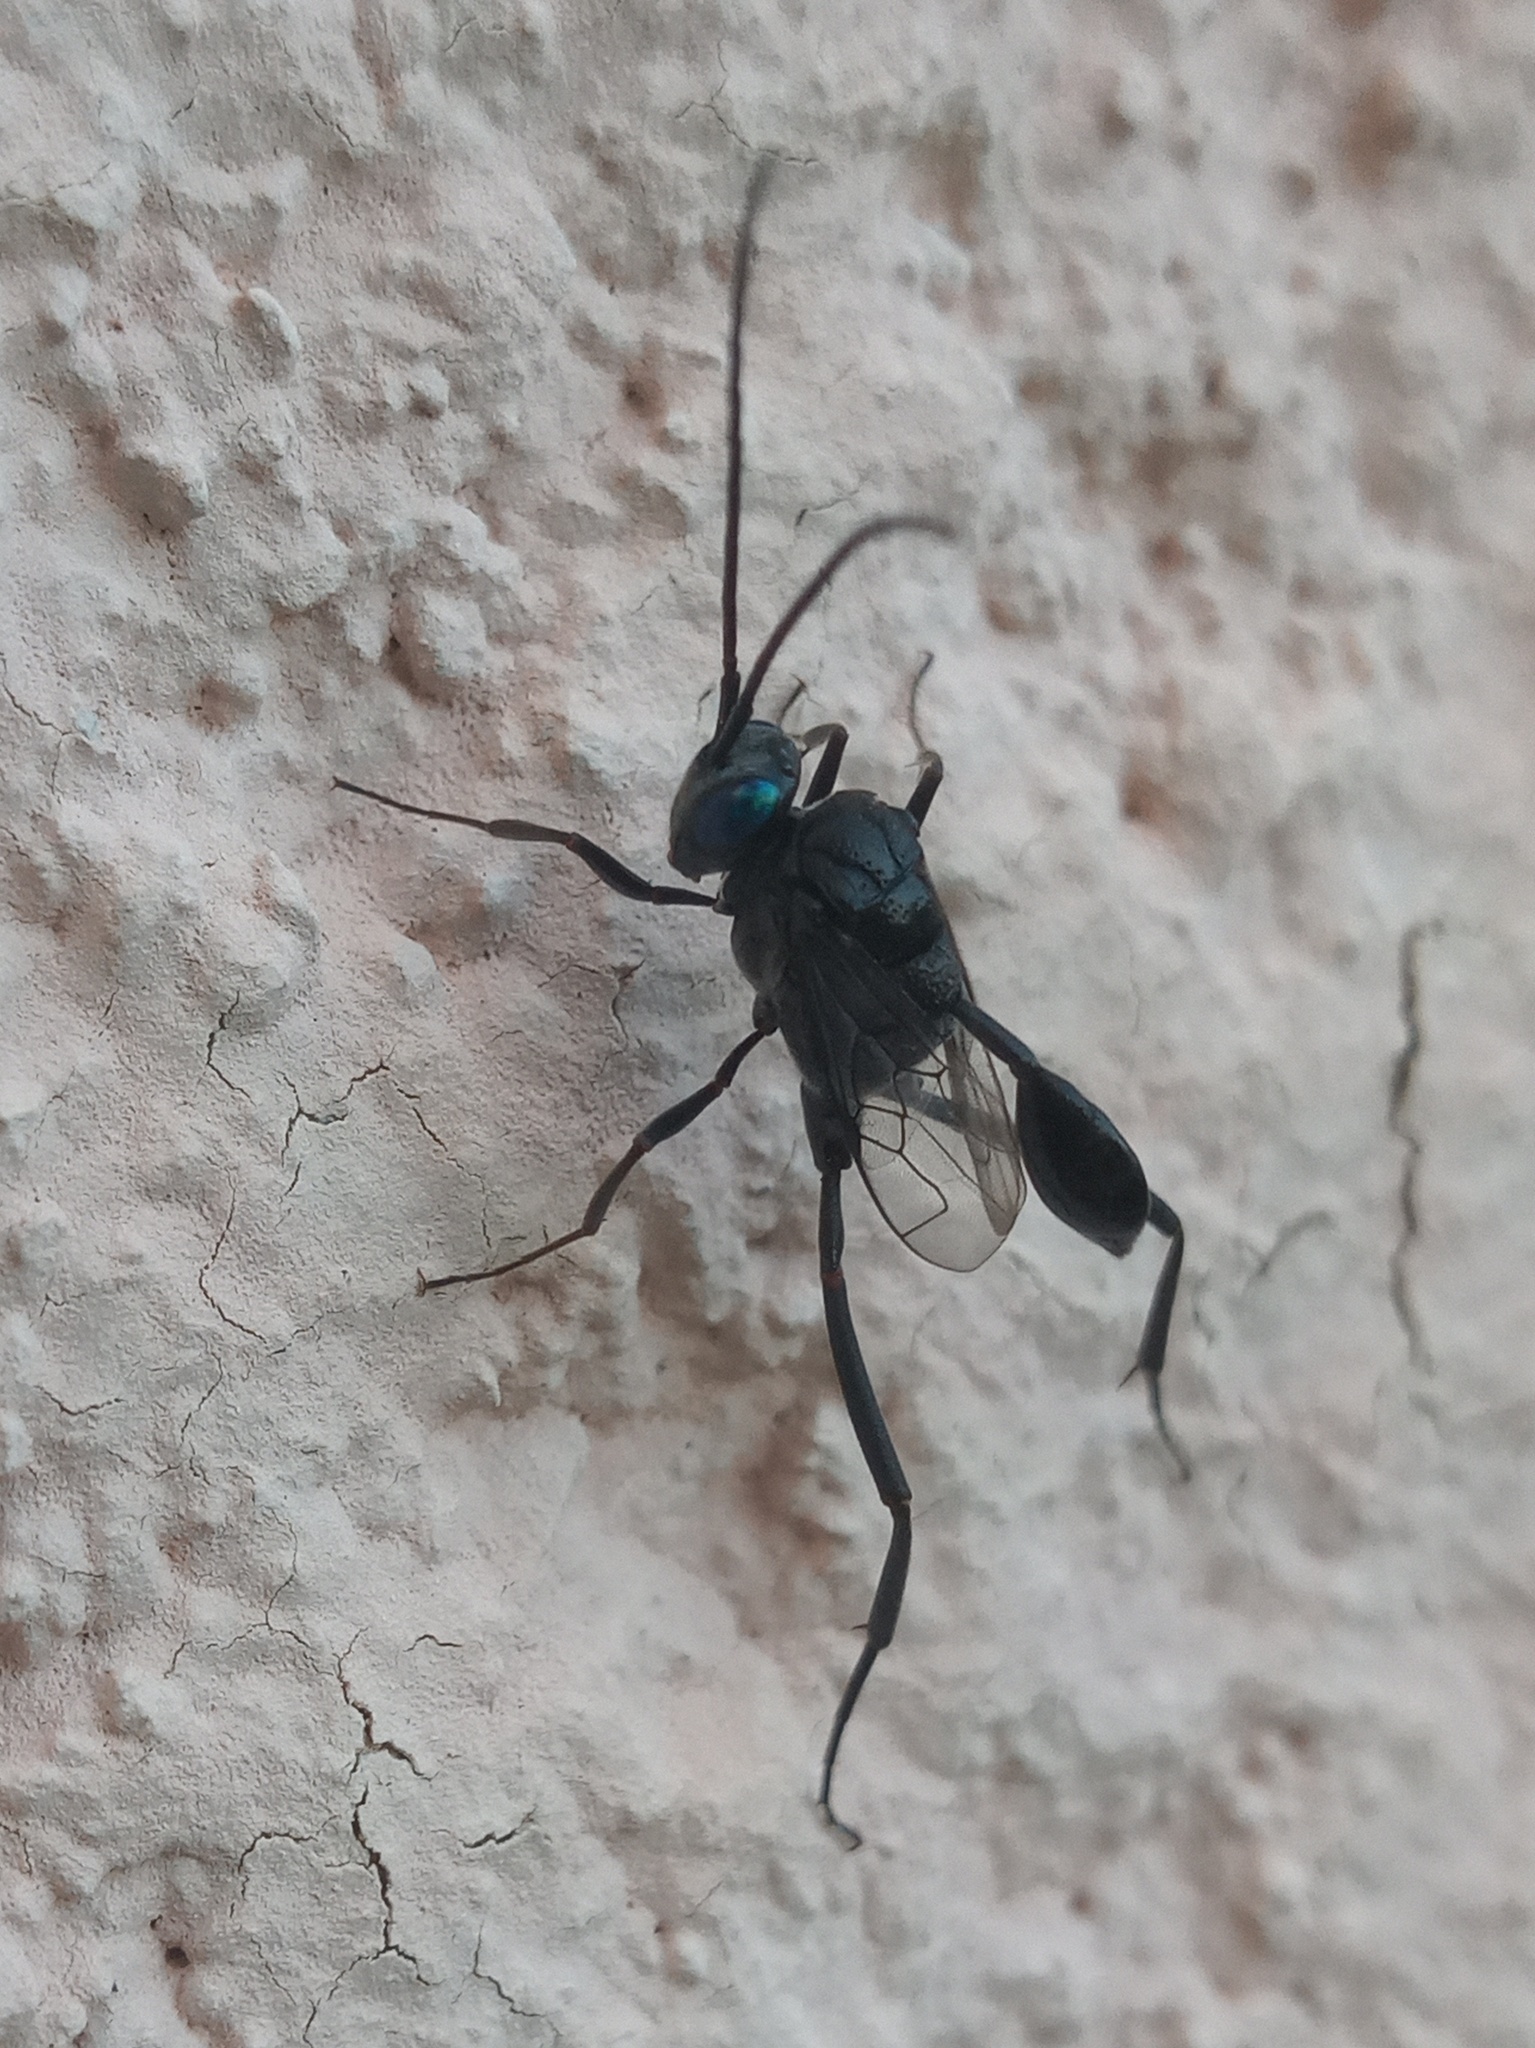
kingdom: Animalia
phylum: Arthropoda
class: Insecta
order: Hymenoptera
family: Evaniidae
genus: Evania
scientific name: Evania appendigaster
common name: Ensign wasp
